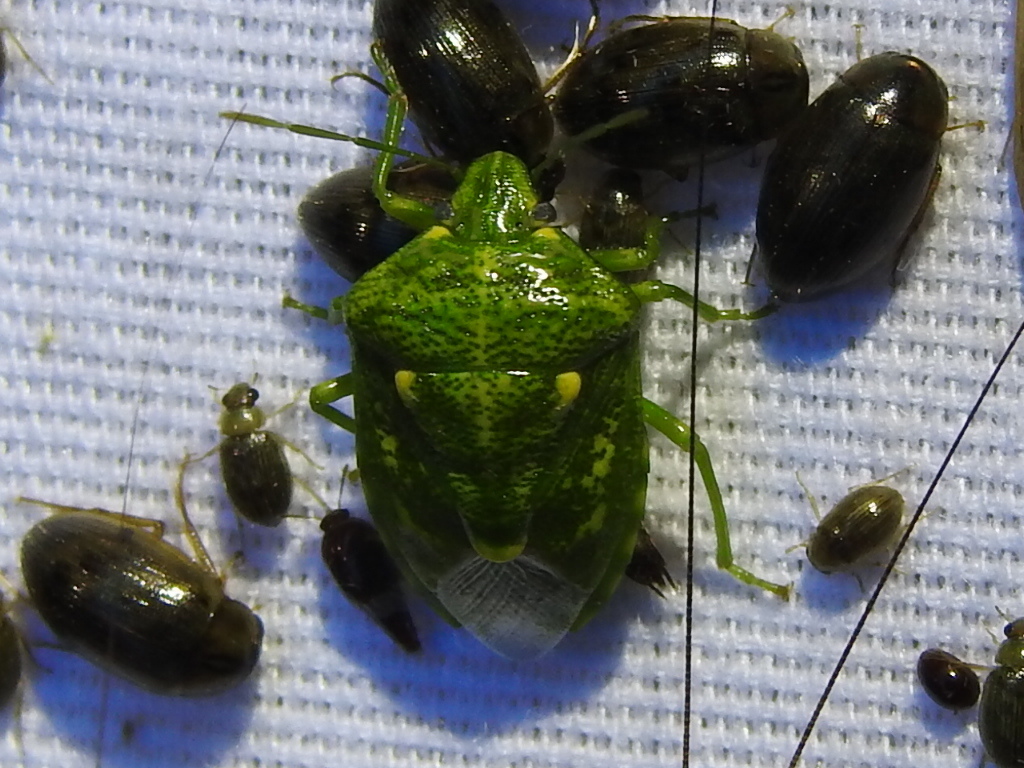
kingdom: Animalia
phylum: Arthropoda
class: Insecta
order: Hemiptera
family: Pentatomidae
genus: Banasa
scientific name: Banasa euchlora
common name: Cedar berry bug
